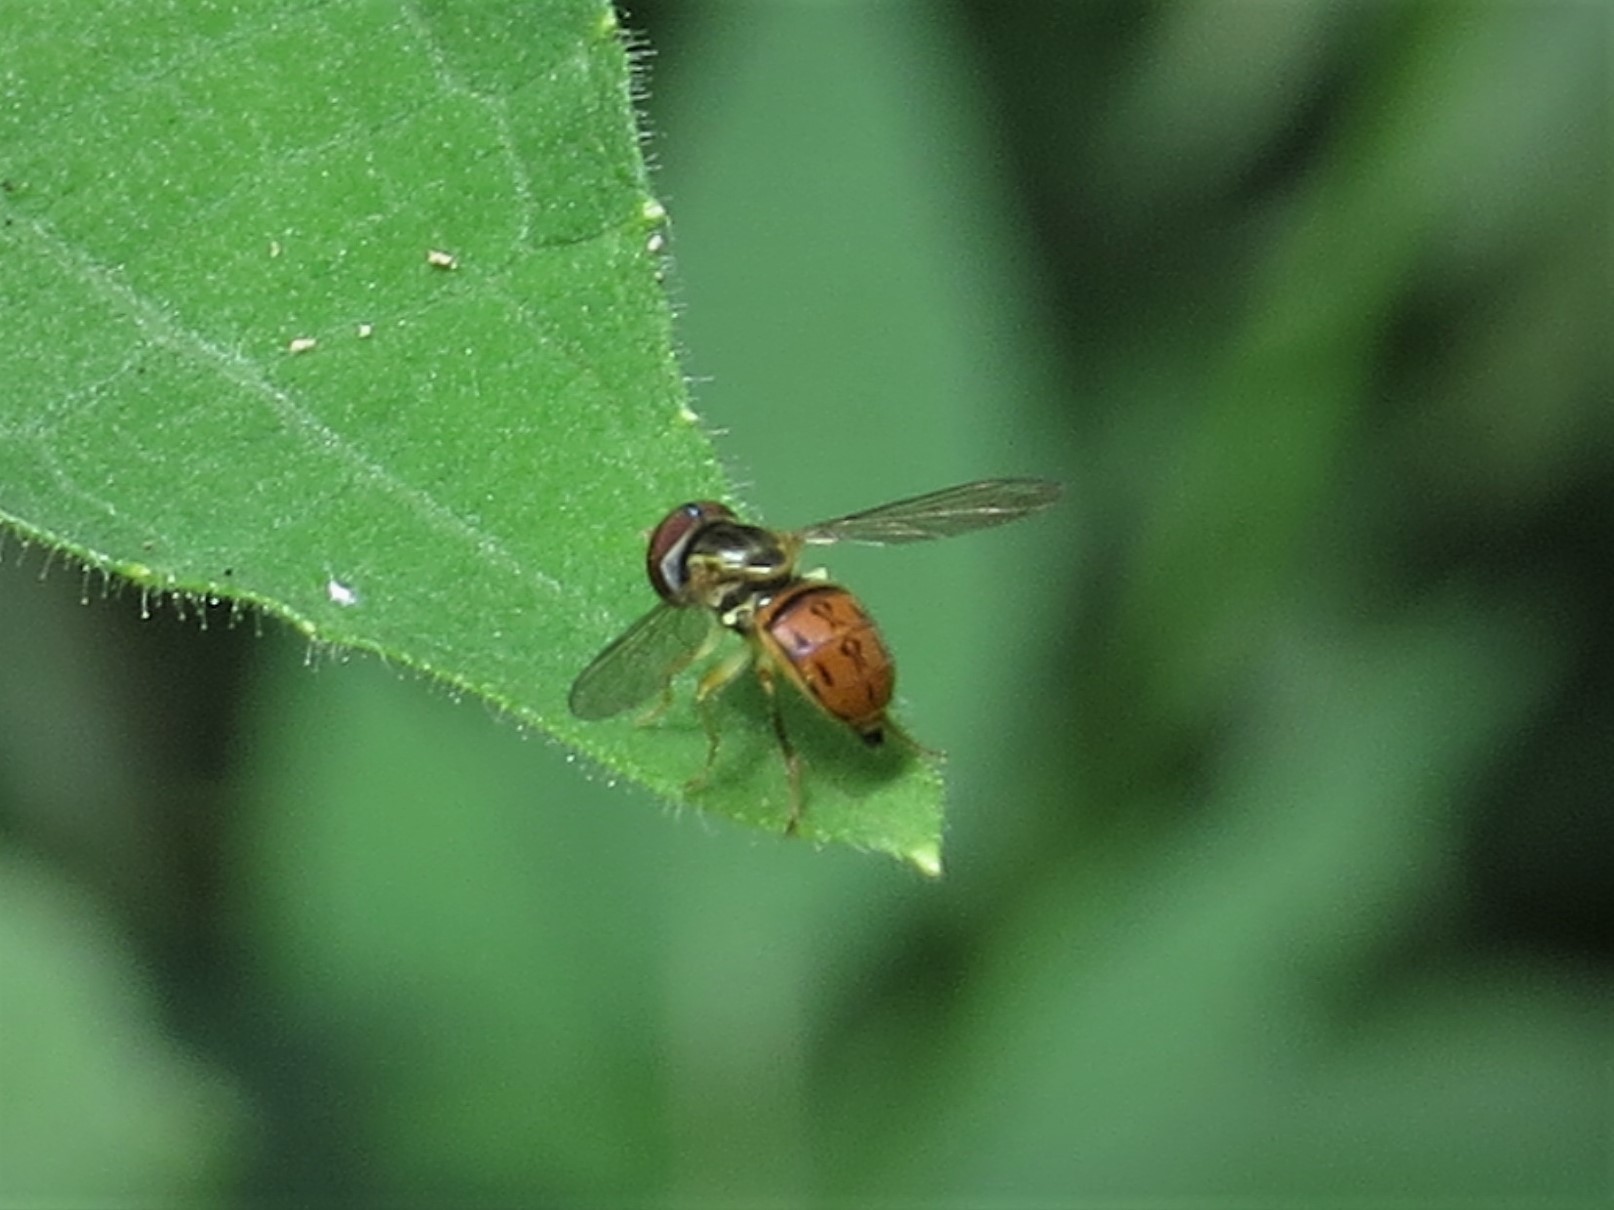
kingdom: Animalia
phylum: Arthropoda
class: Insecta
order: Diptera
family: Syrphidae
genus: Toxomerus
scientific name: Toxomerus boscii
